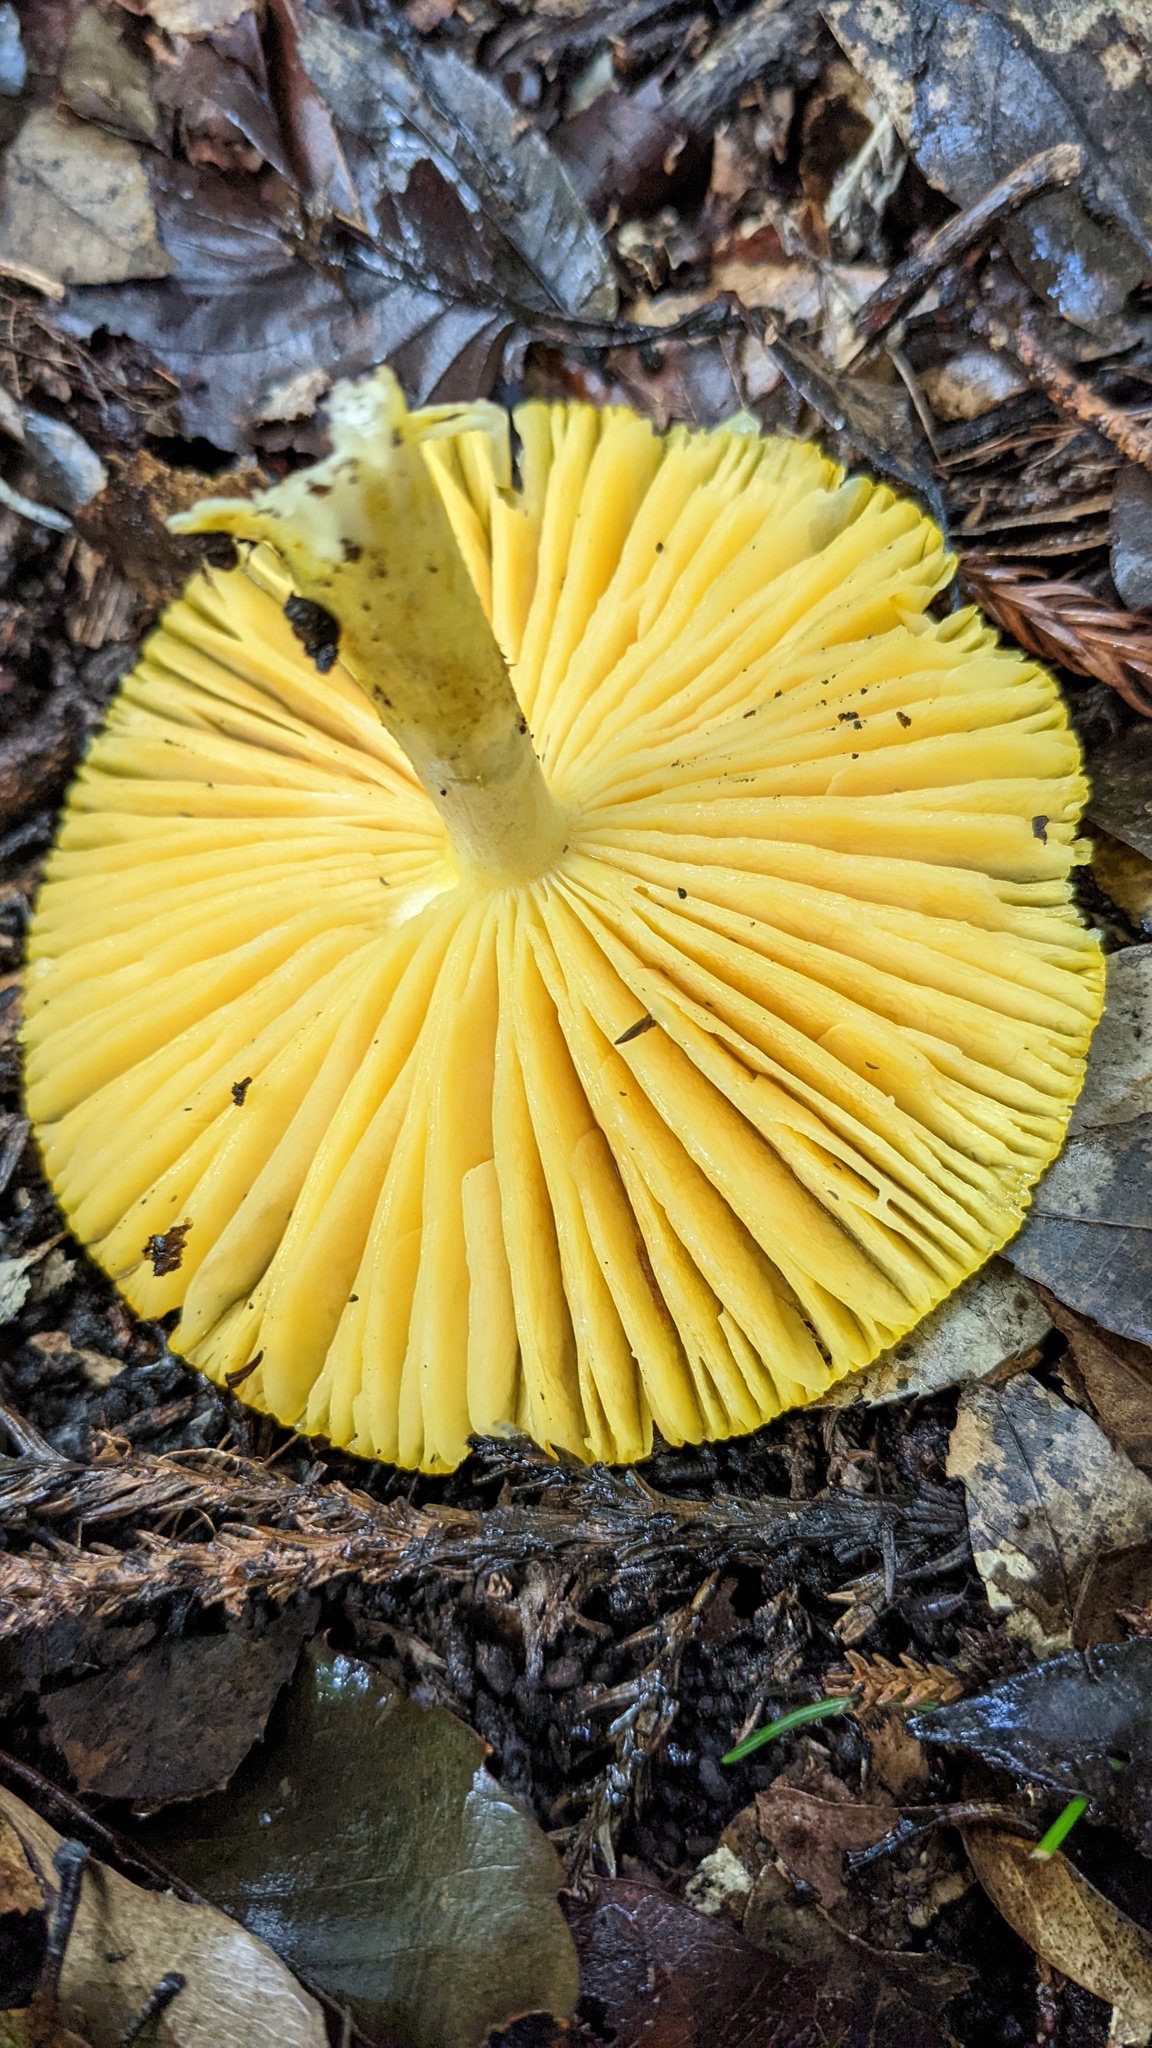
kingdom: Fungi
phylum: Basidiomycota
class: Agaricomycetes
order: Agaricales
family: Amanitaceae
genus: Amanita
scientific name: Amanita javanica
